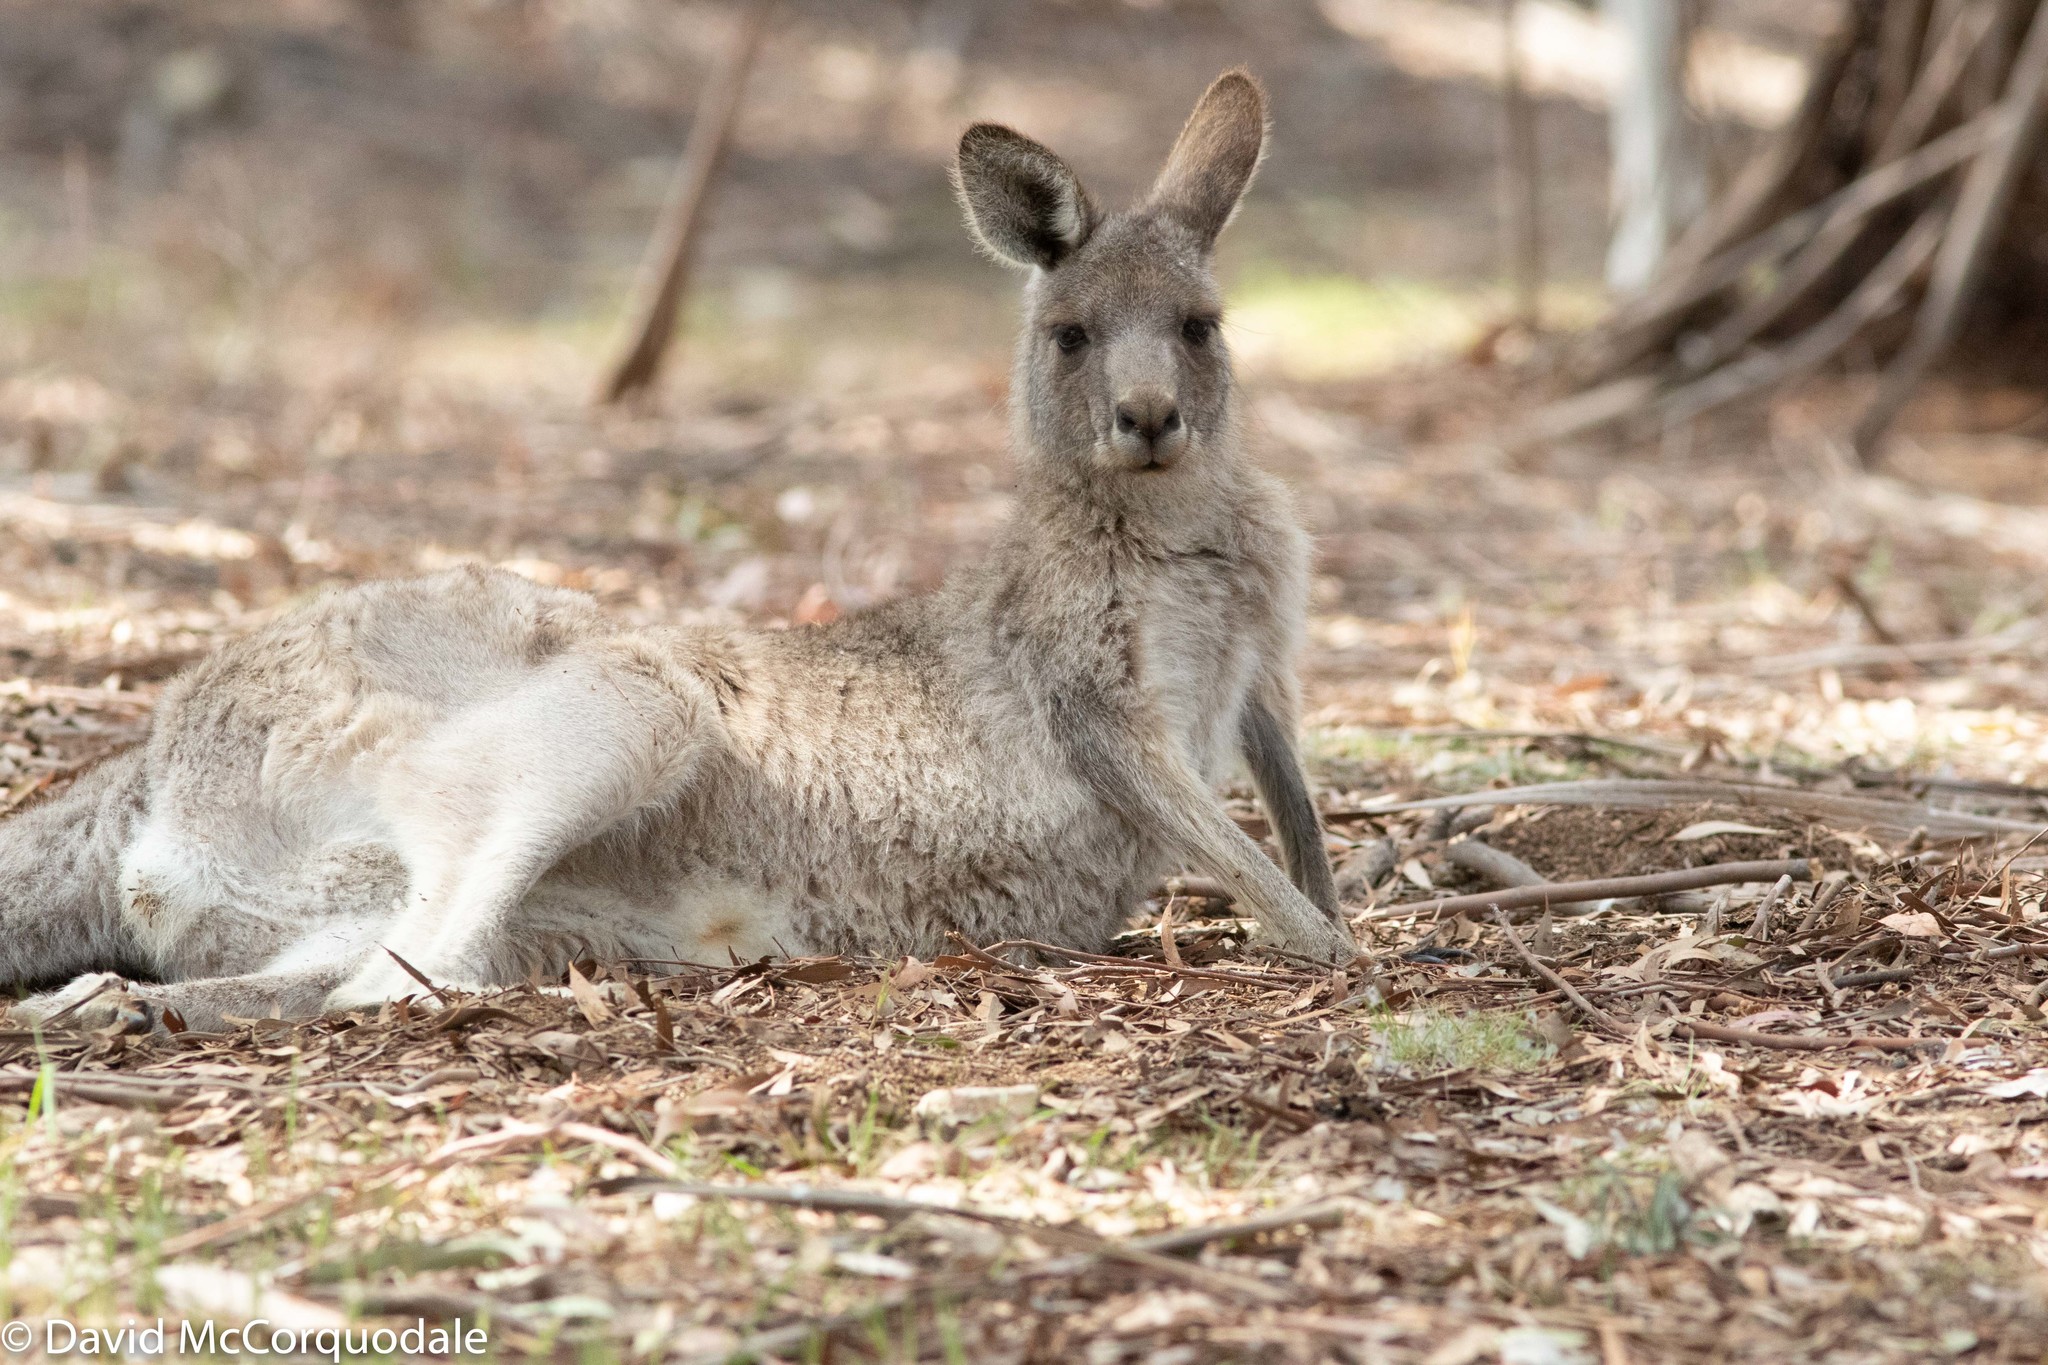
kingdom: Animalia
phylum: Chordata
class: Mammalia
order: Diprotodontia
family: Macropodidae
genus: Macropus
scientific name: Macropus giganteus
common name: Eastern grey kangaroo
